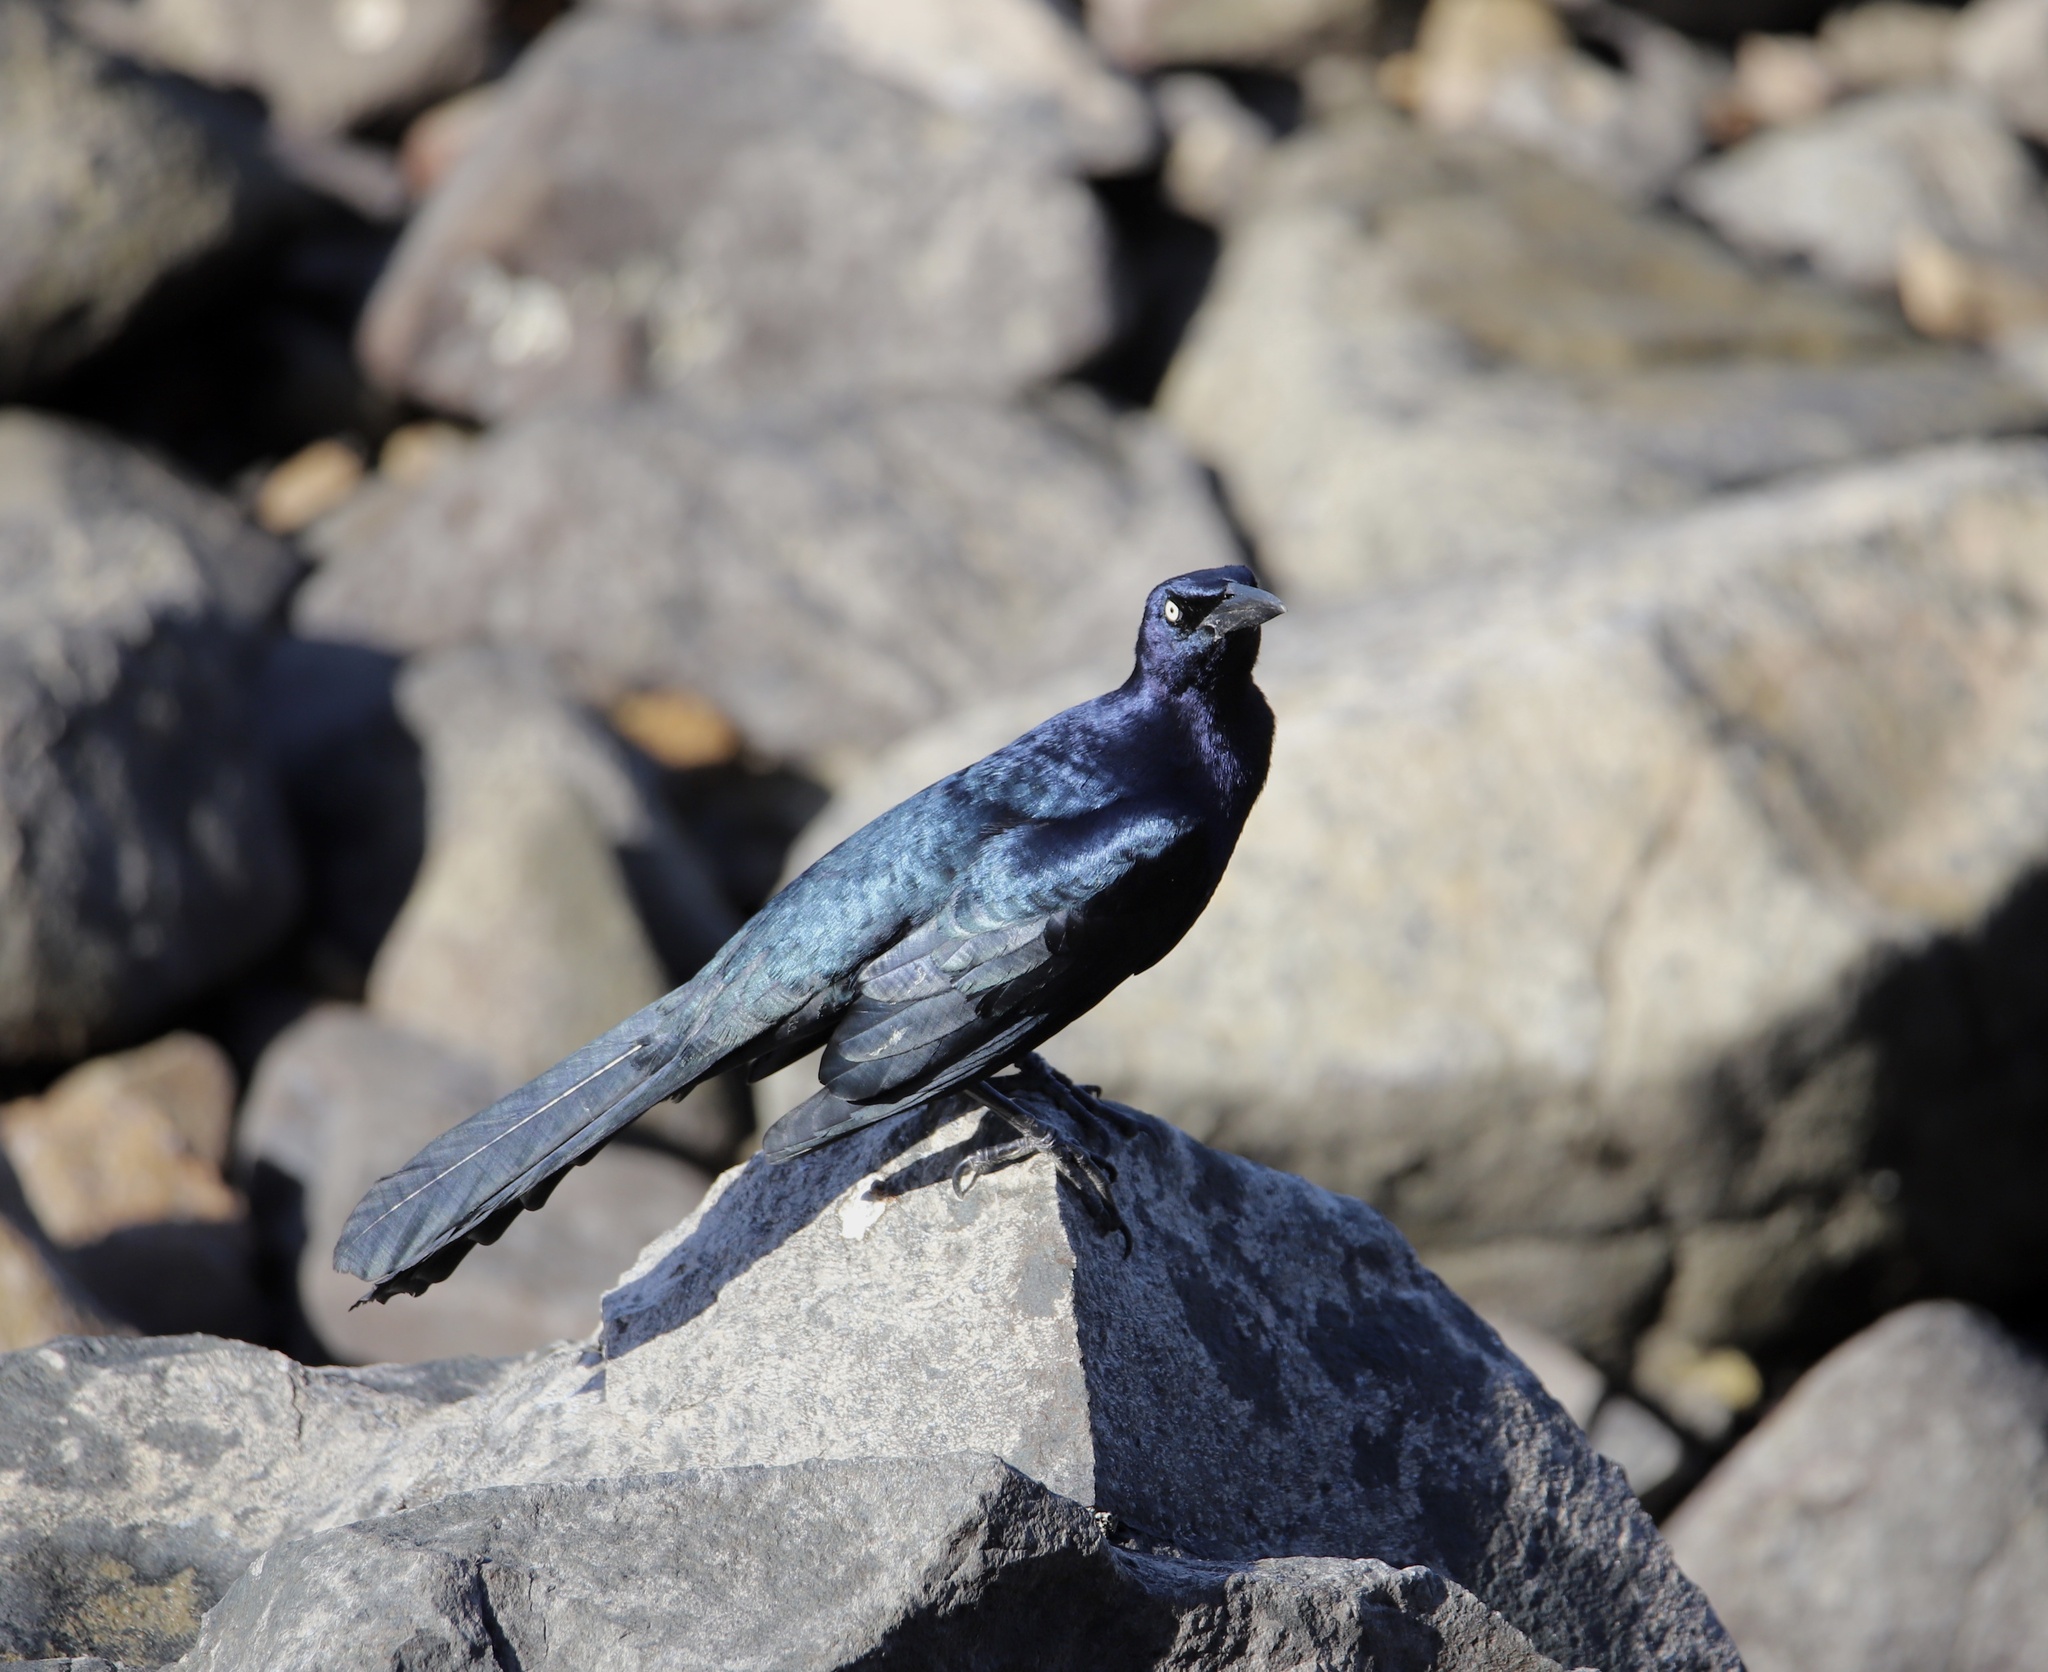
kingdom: Animalia
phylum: Chordata
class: Aves
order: Passeriformes
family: Icteridae
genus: Quiscalus
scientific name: Quiscalus mexicanus
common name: Great-tailed grackle
